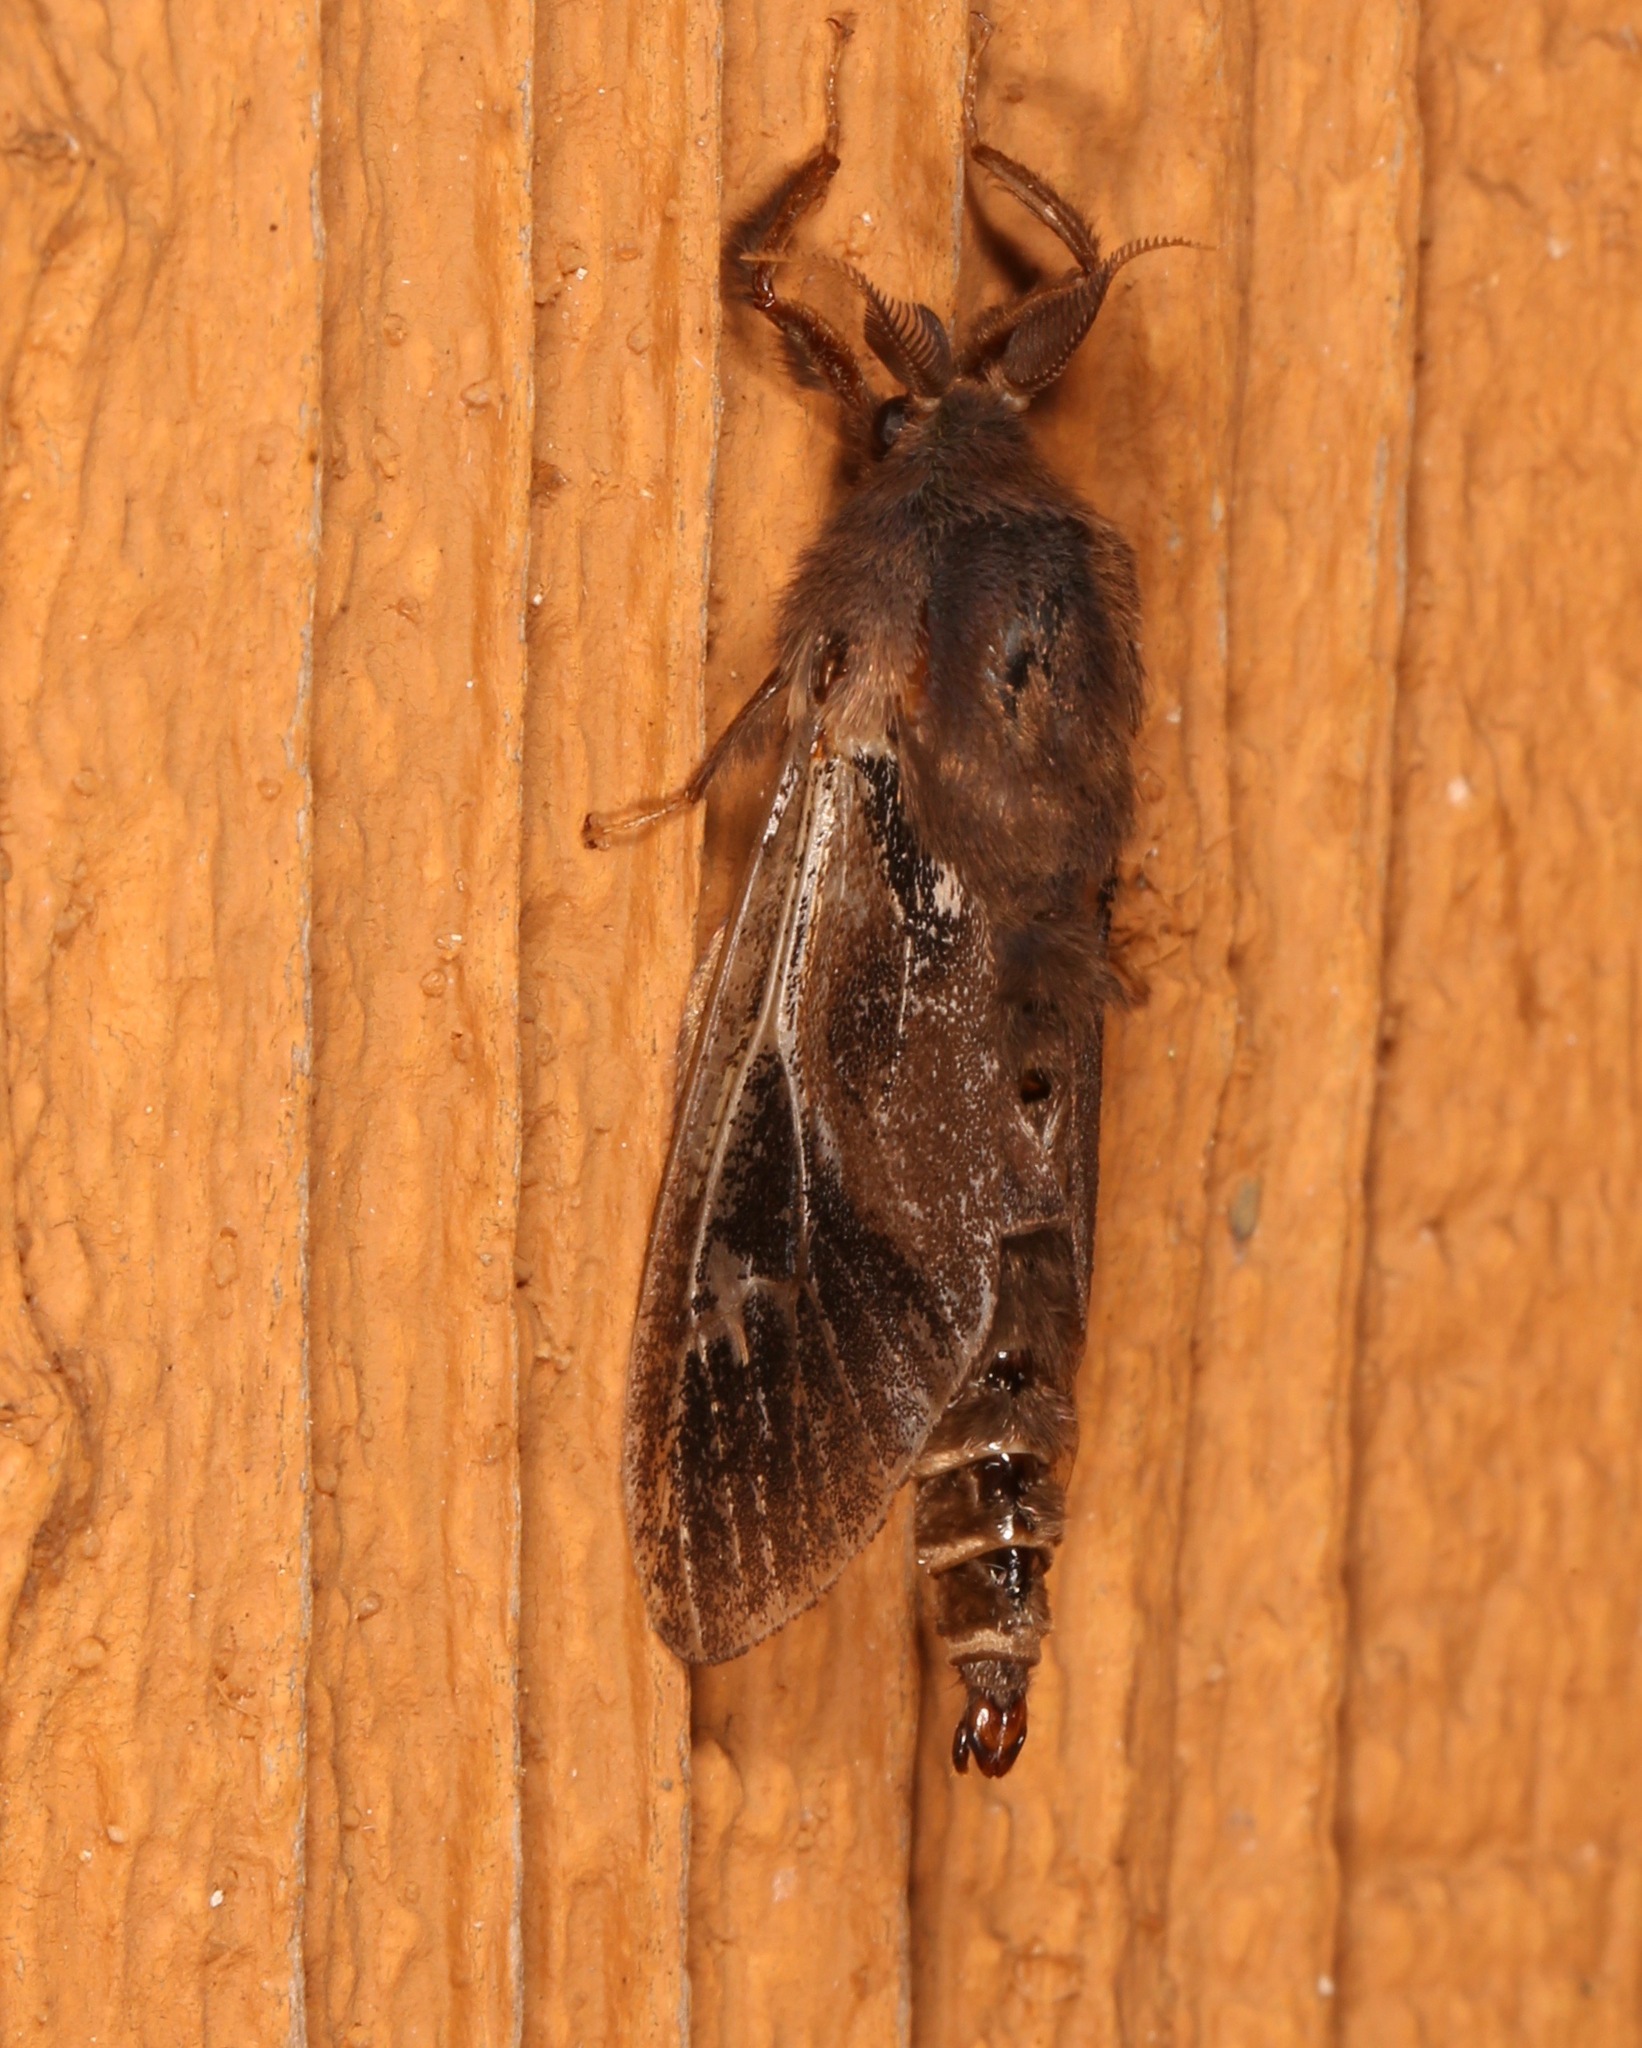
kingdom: Animalia
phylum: Arthropoda
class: Insecta
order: Lepidoptera
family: Psychidae
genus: Oiketicus
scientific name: Oiketicus
